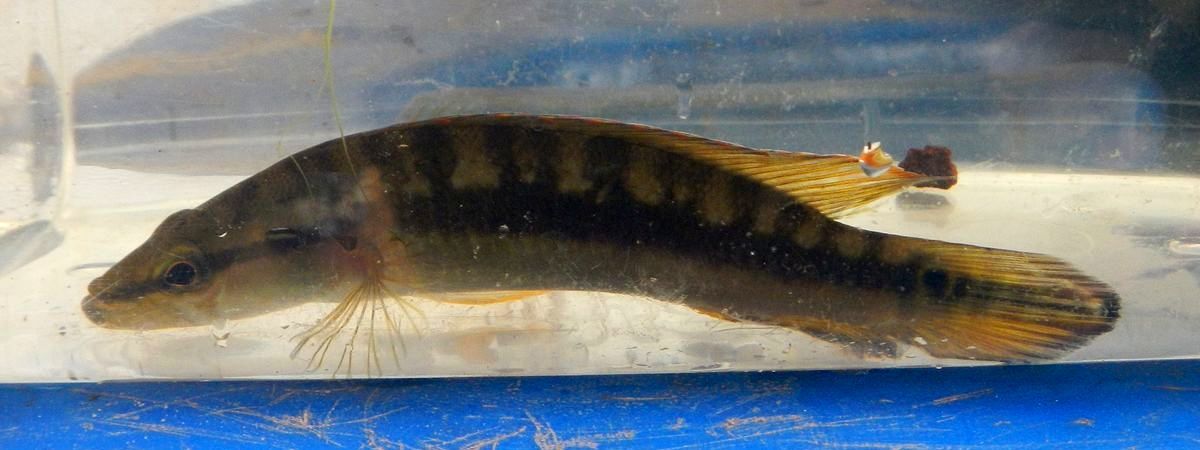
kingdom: Animalia
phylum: Chordata
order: Perciformes
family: Cichlidae
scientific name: Cichlidae
